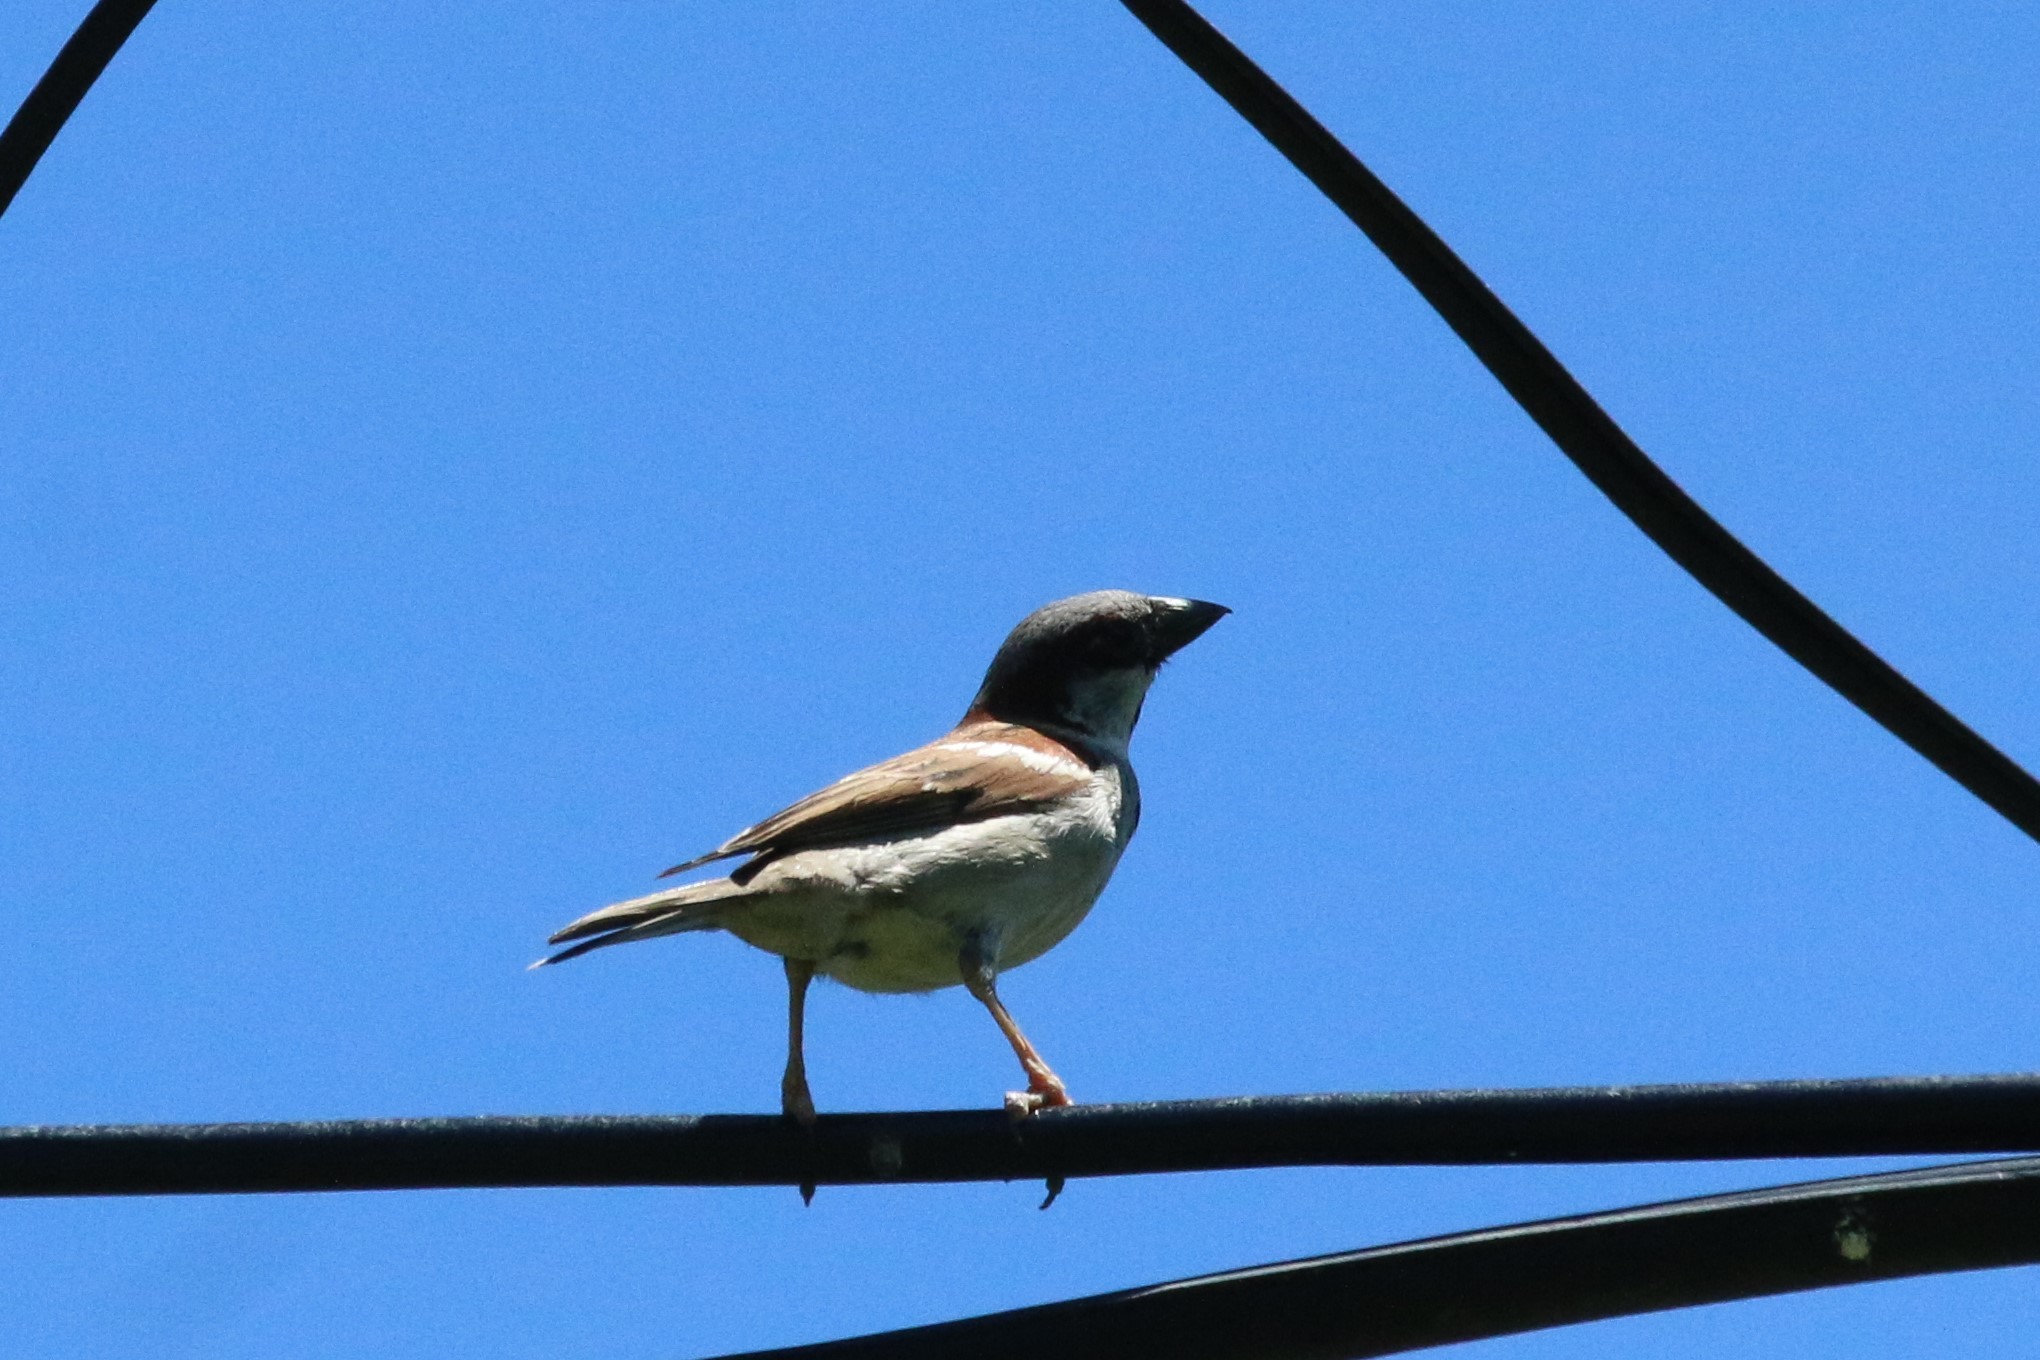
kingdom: Animalia
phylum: Chordata
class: Aves
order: Passeriformes
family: Passeridae
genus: Passer
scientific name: Passer domesticus
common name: House sparrow
